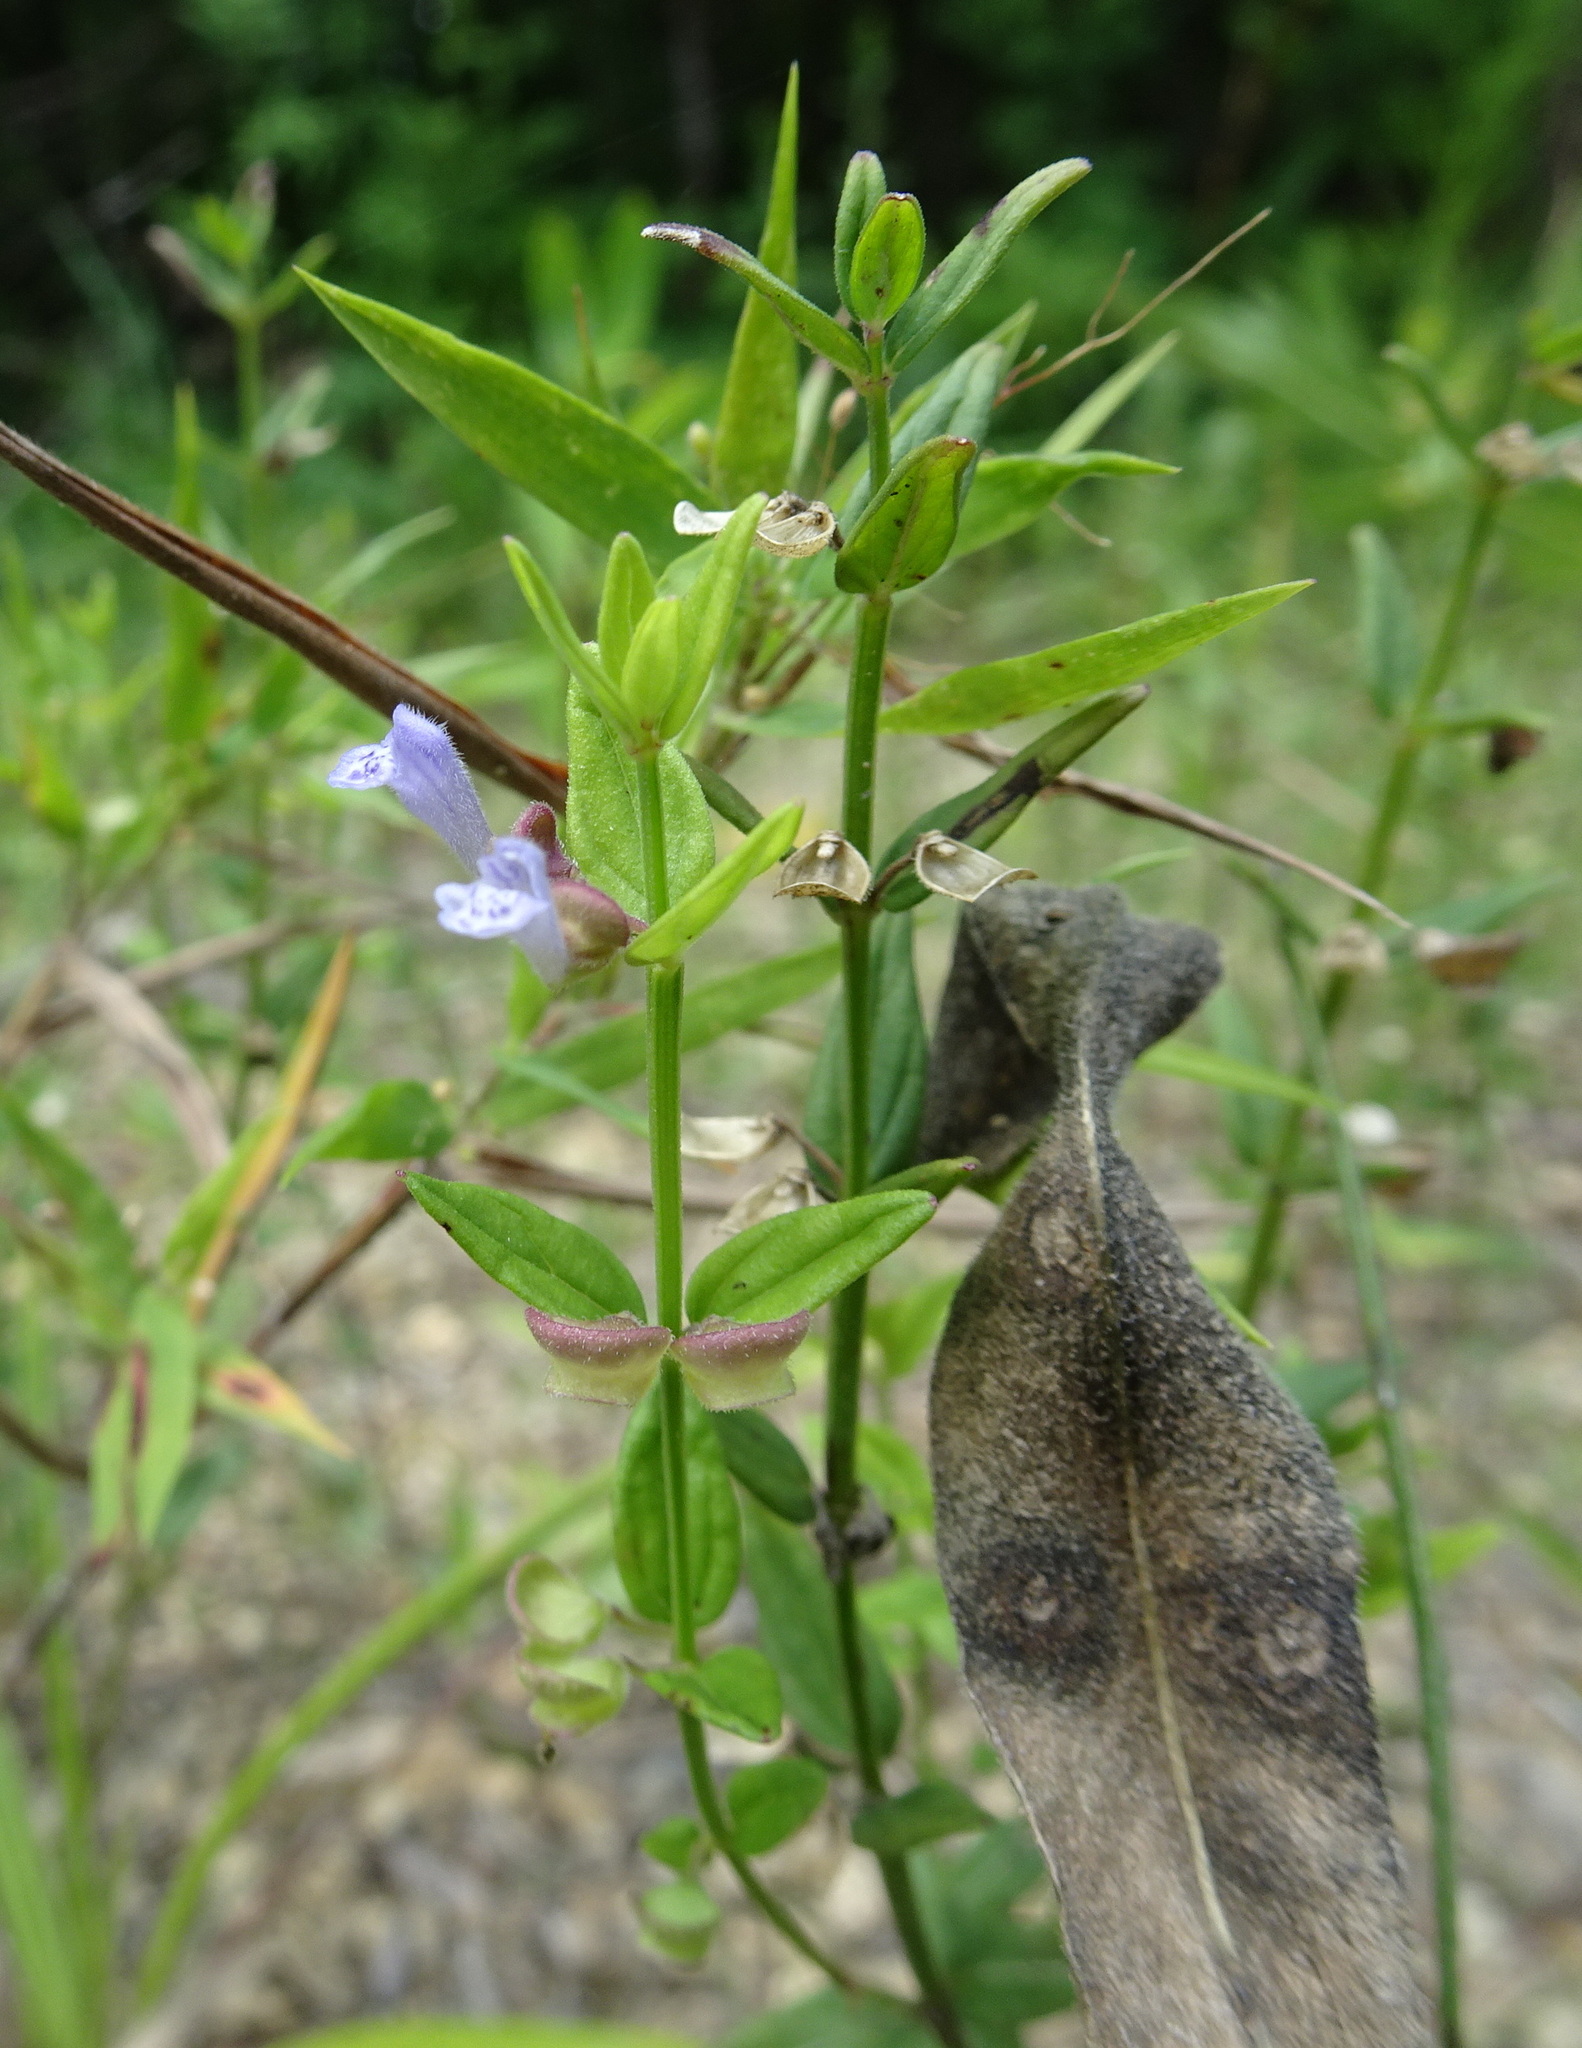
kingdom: Plantae
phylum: Tracheophyta
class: Magnoliopsida
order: Lamiales
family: Lamiaceae
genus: Scutellaria
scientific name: Scutellaria parvula
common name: Little scullcap
